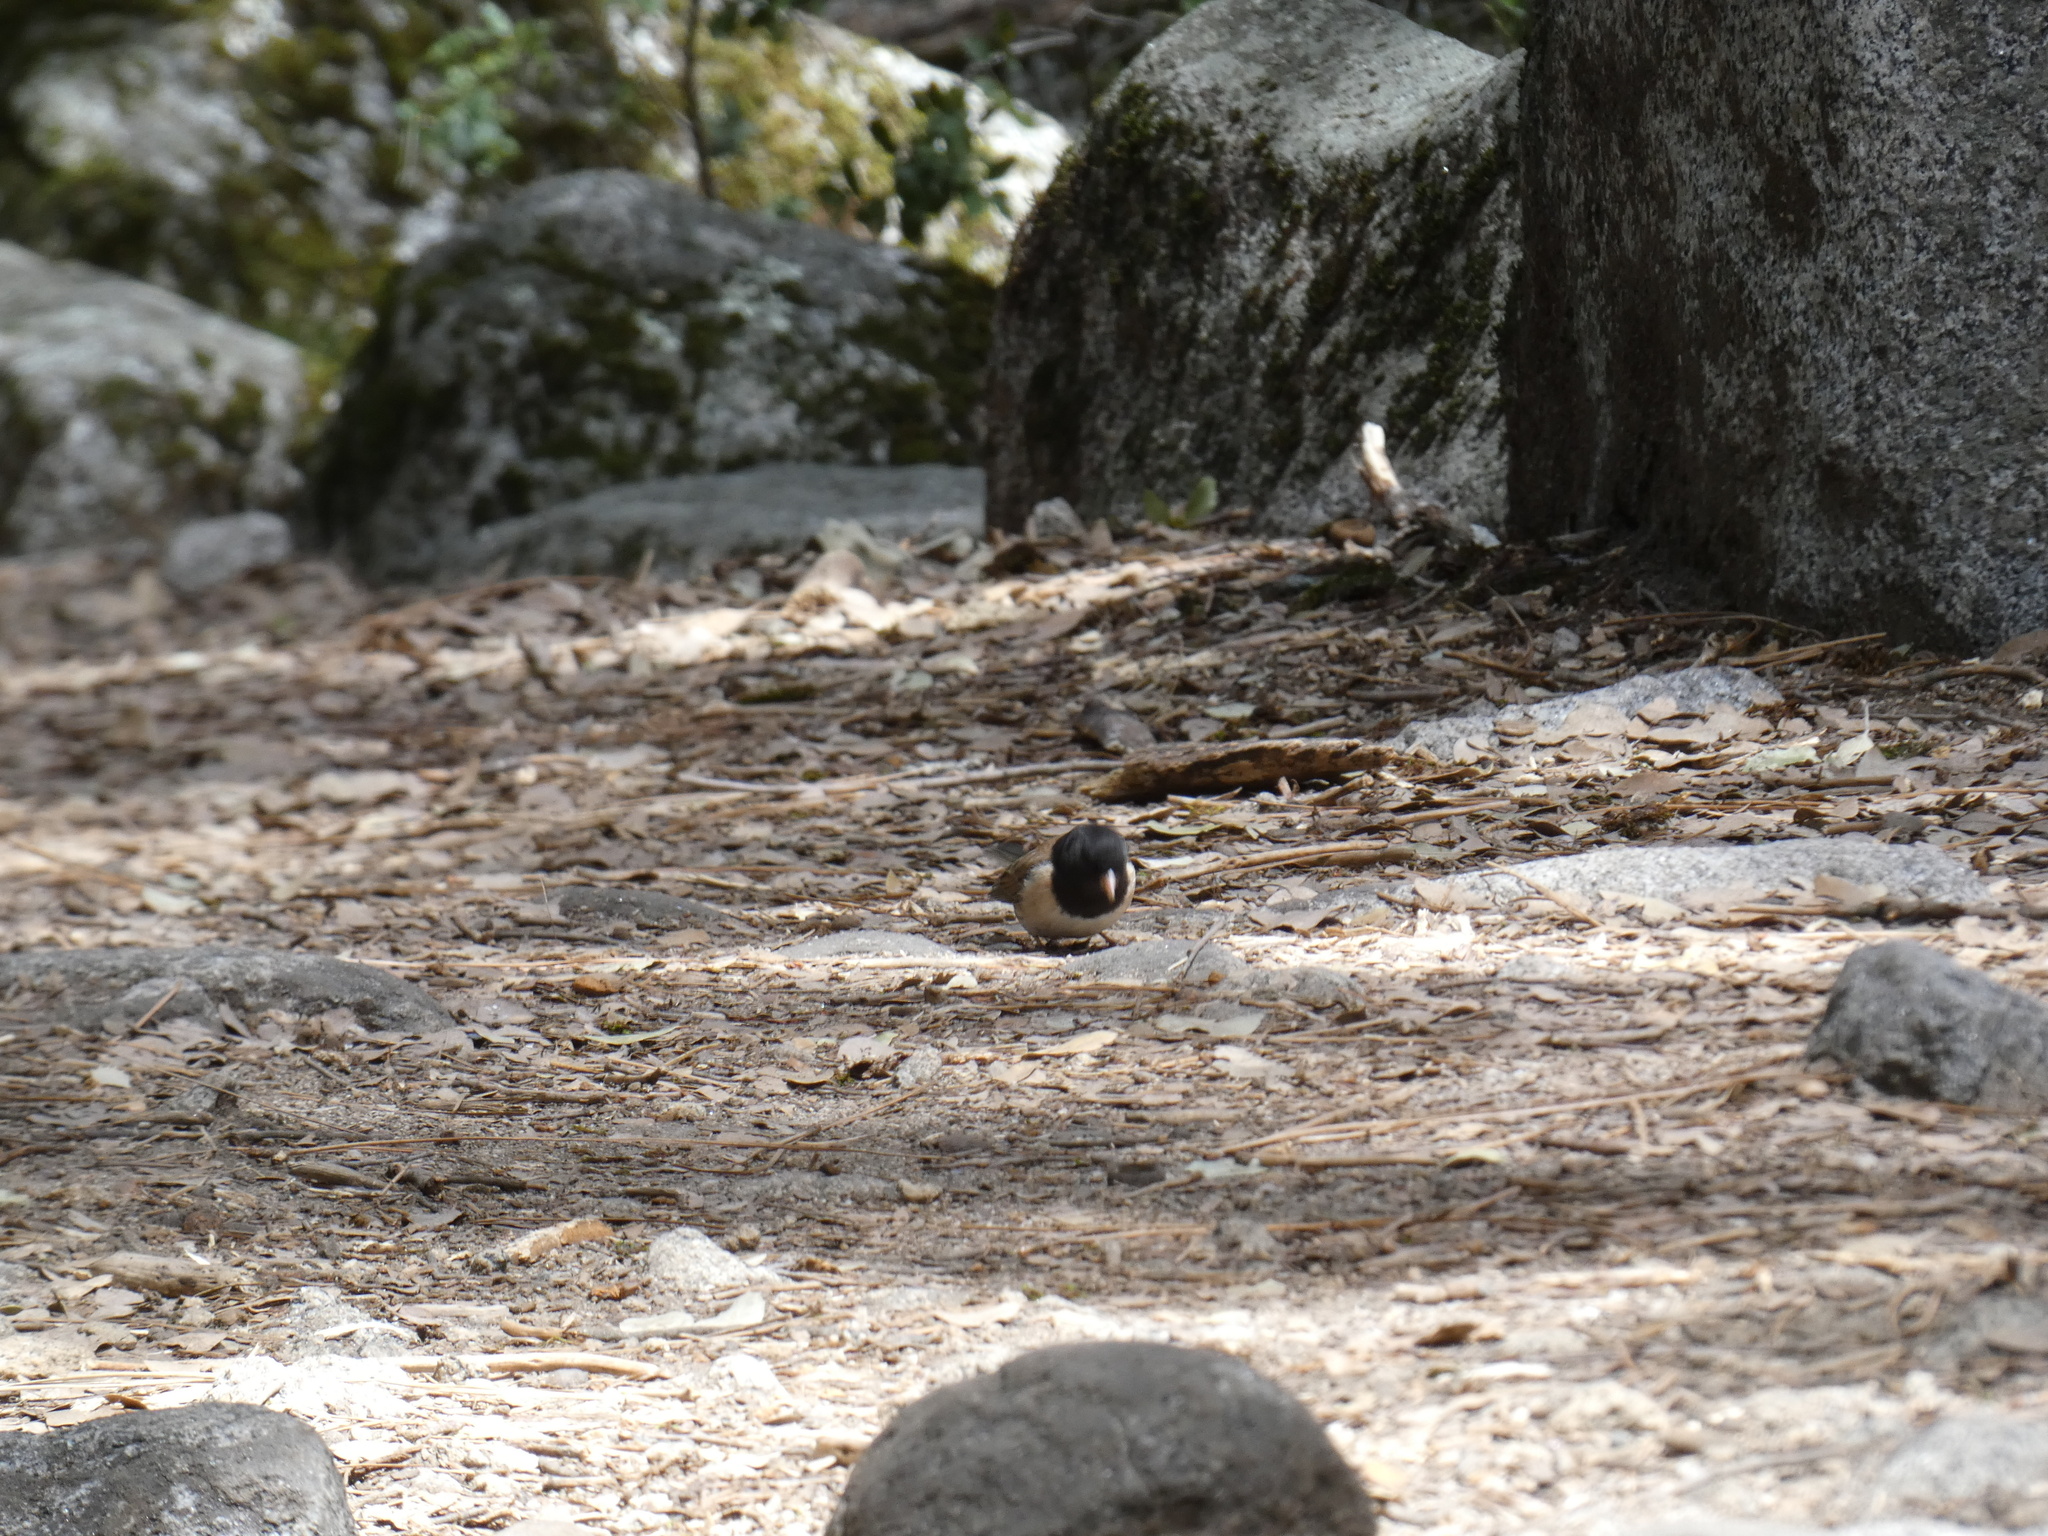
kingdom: Animalia
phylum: Chordata
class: Aves
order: Passeriformes
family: Passerellidae
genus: Junco
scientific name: Junco hyemalis
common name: Dark-eyed junco
